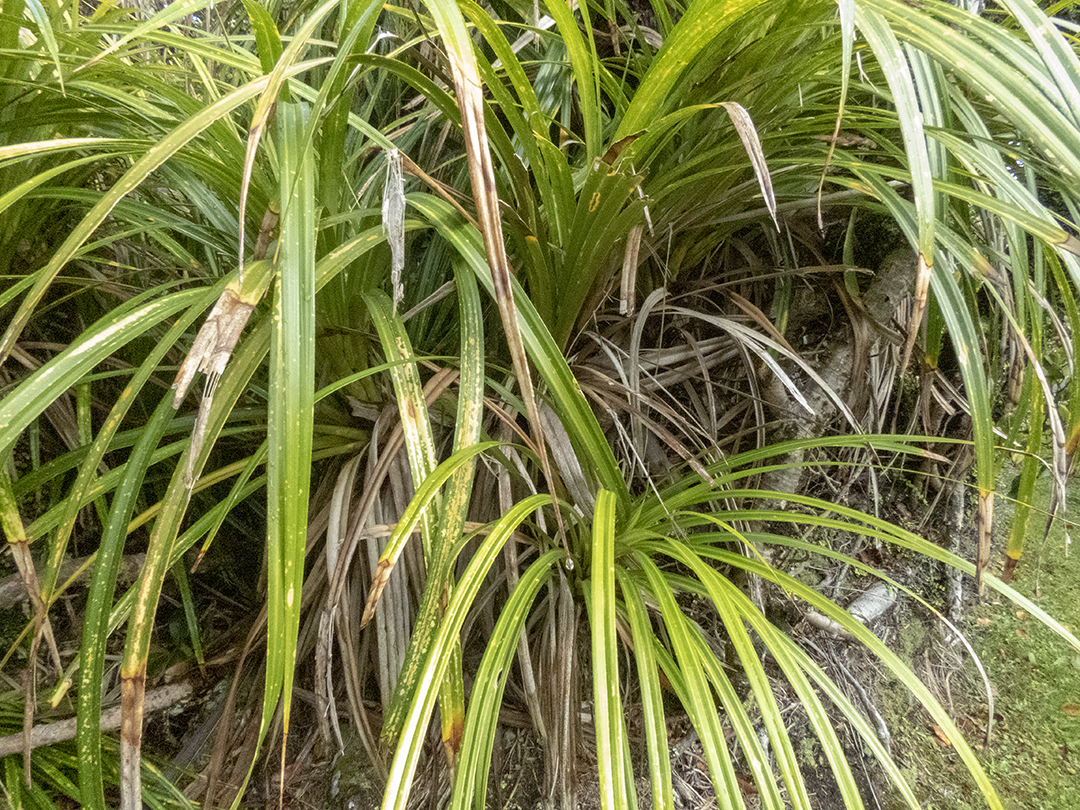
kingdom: Plantae
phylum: Tracheophyta
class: Liliopsida
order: Pandanales
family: Pandanaceae
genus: Freycinetia
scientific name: Freycinetia banksii
